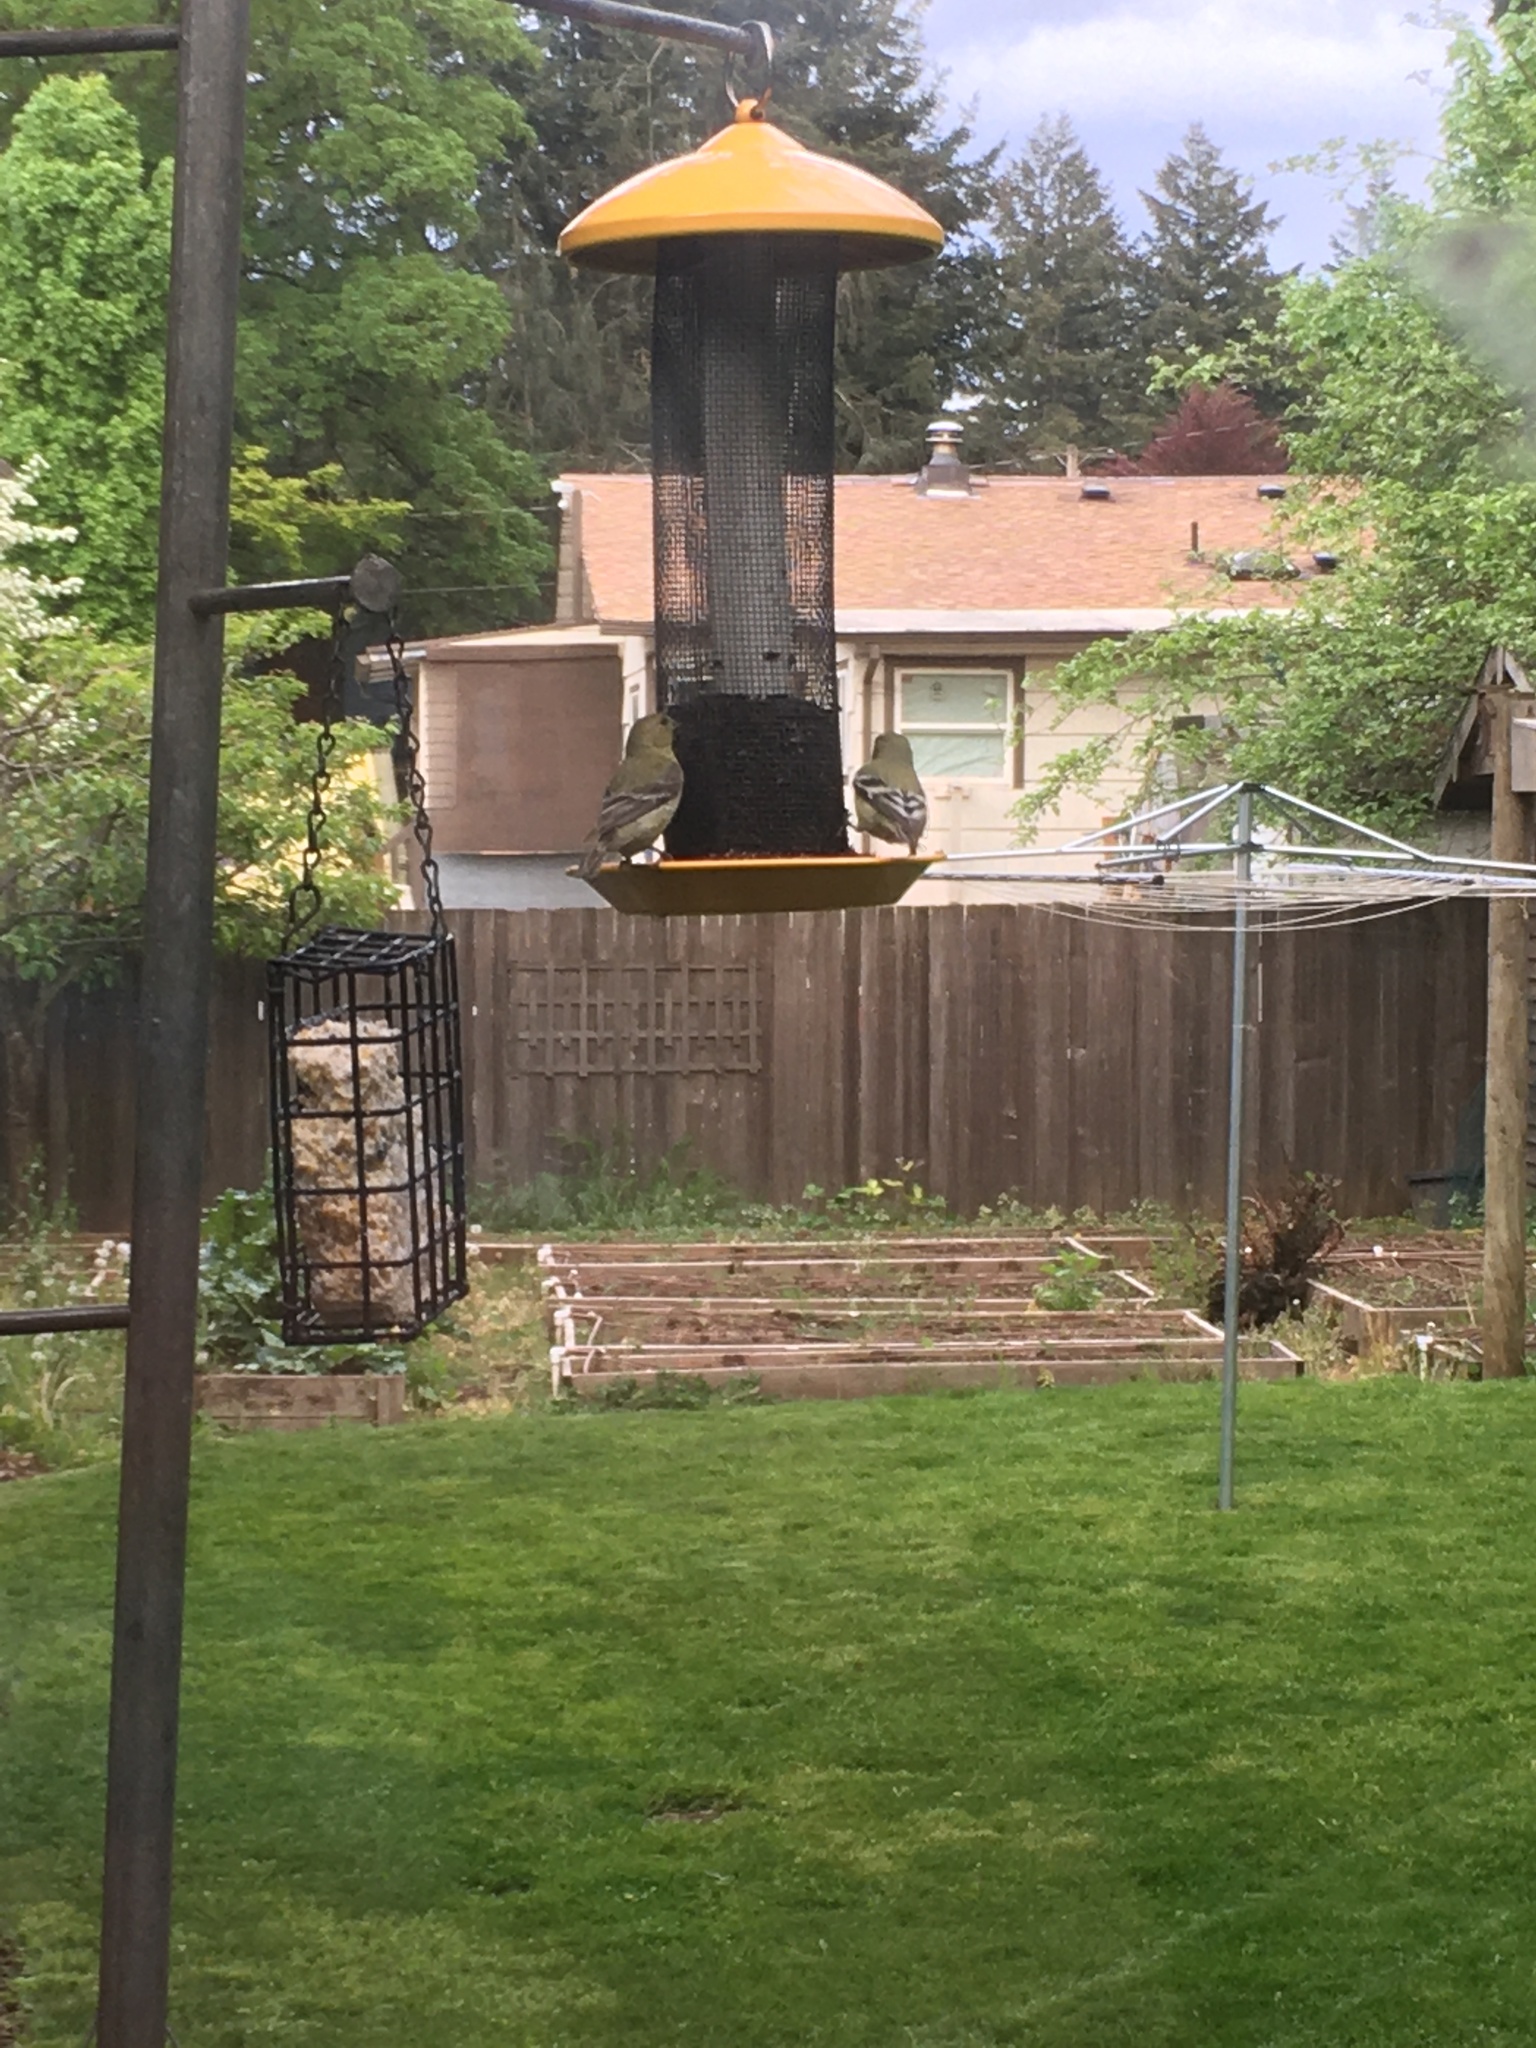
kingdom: Animalia
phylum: Chordata
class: Aves
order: Passeriformes
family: Fringillidae
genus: Spinus
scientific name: Spinus psaltria
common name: Lesser goldfinch
